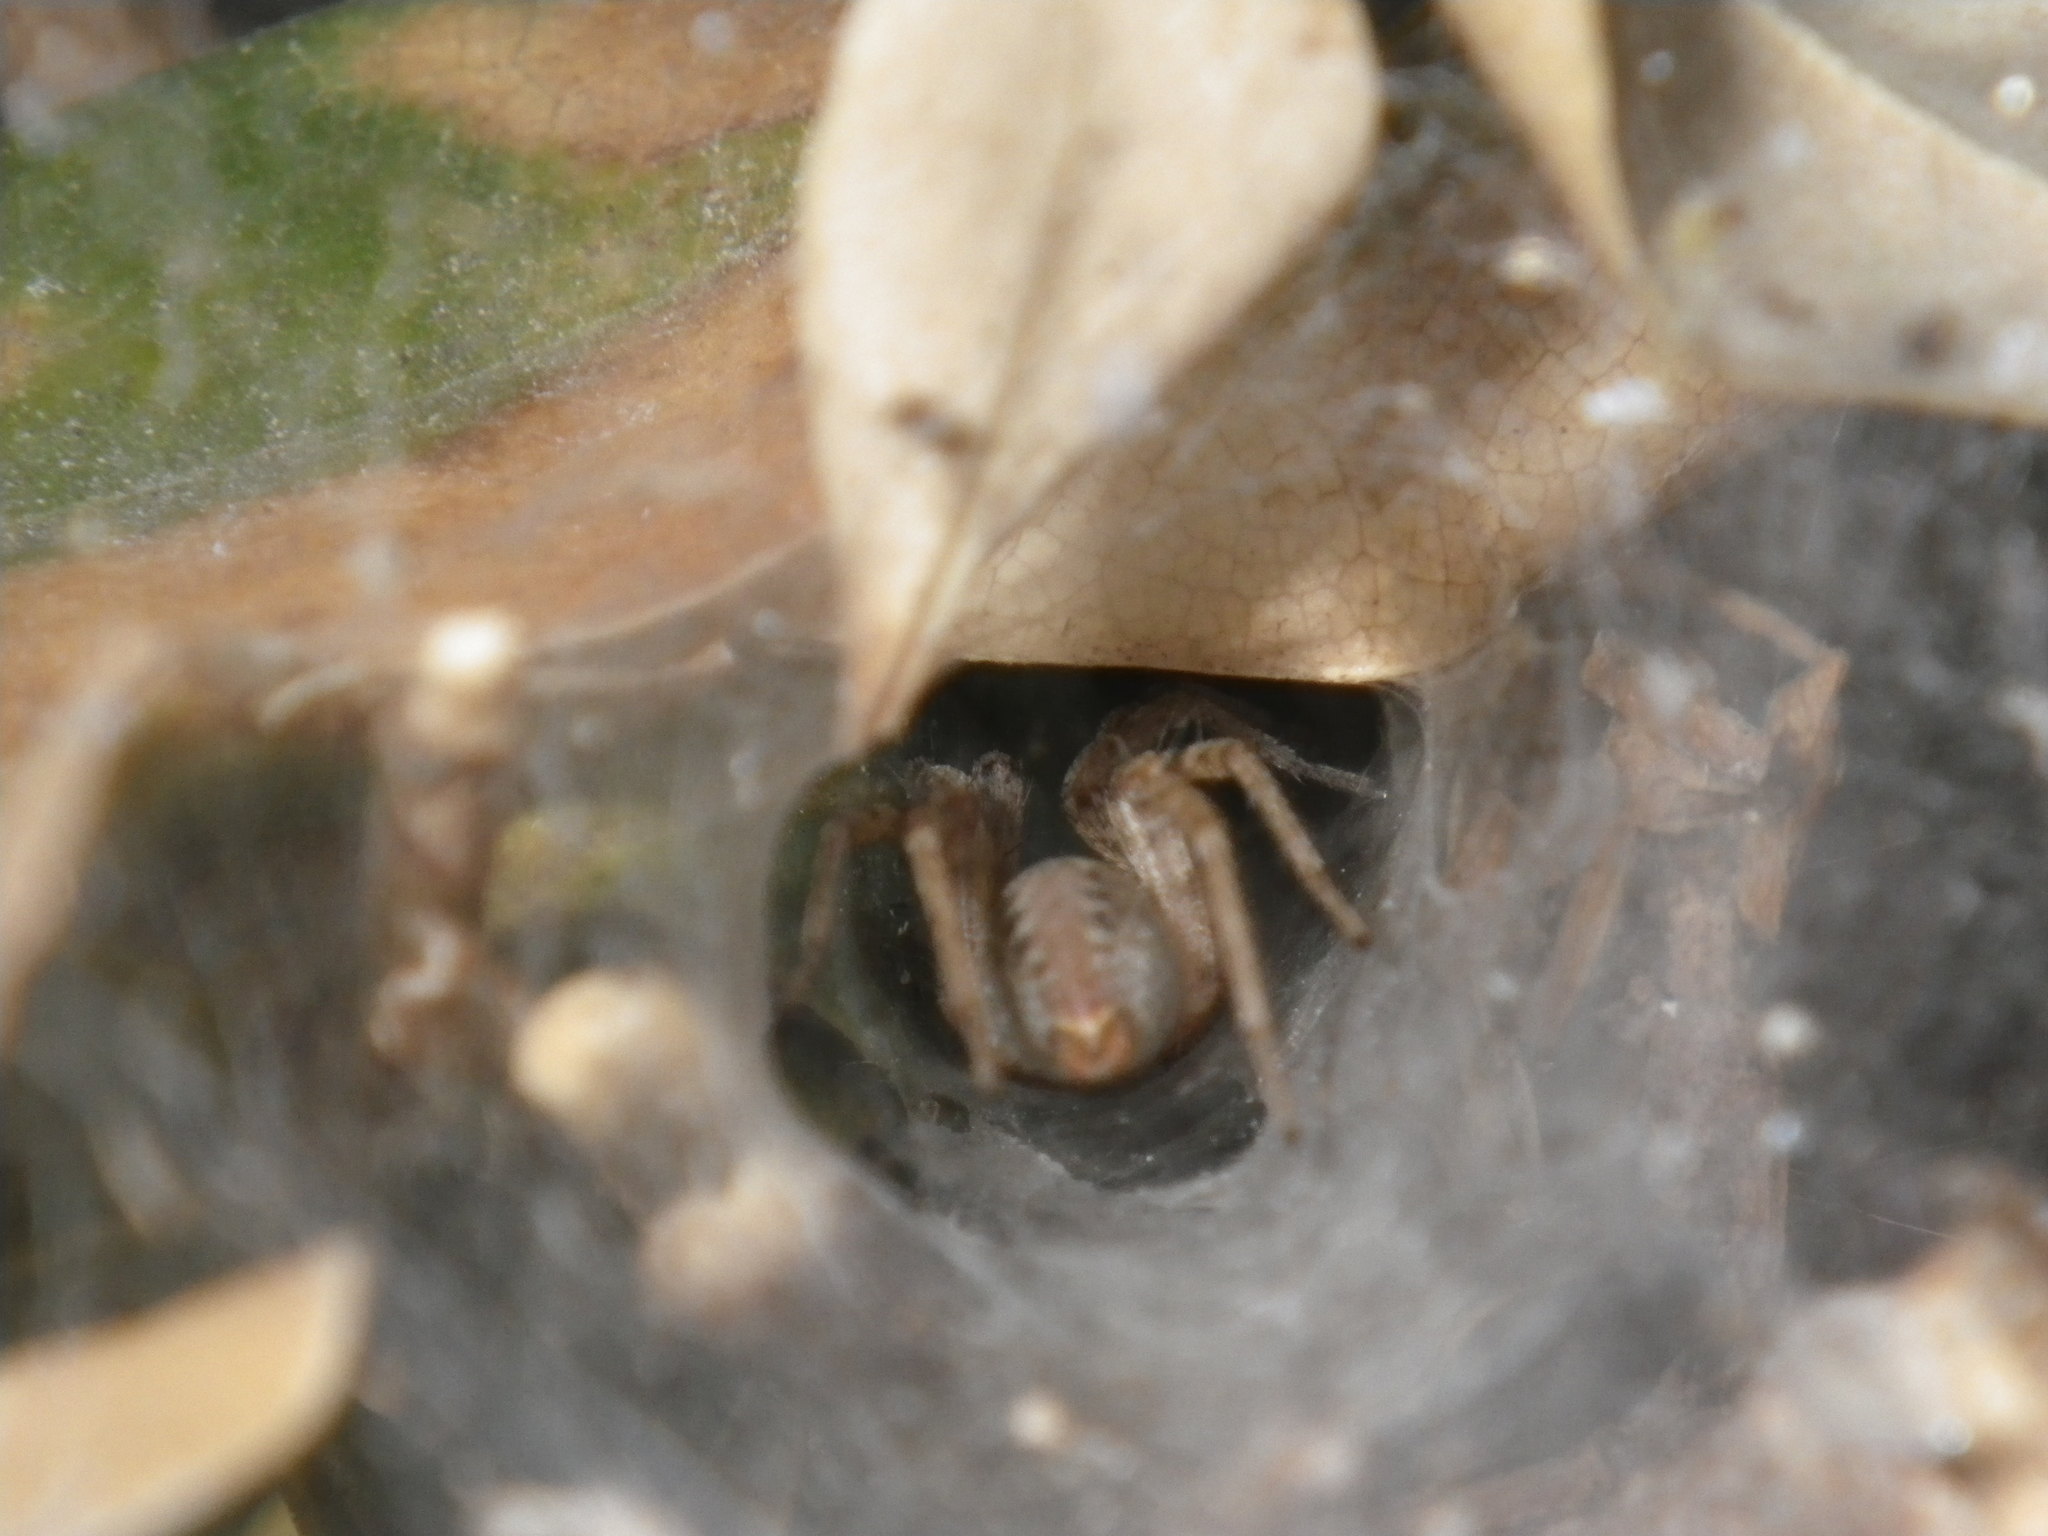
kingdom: Animalia
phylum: Arthropoda
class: Arachnida
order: Araneae
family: Agelenidae
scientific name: Agelenidae
